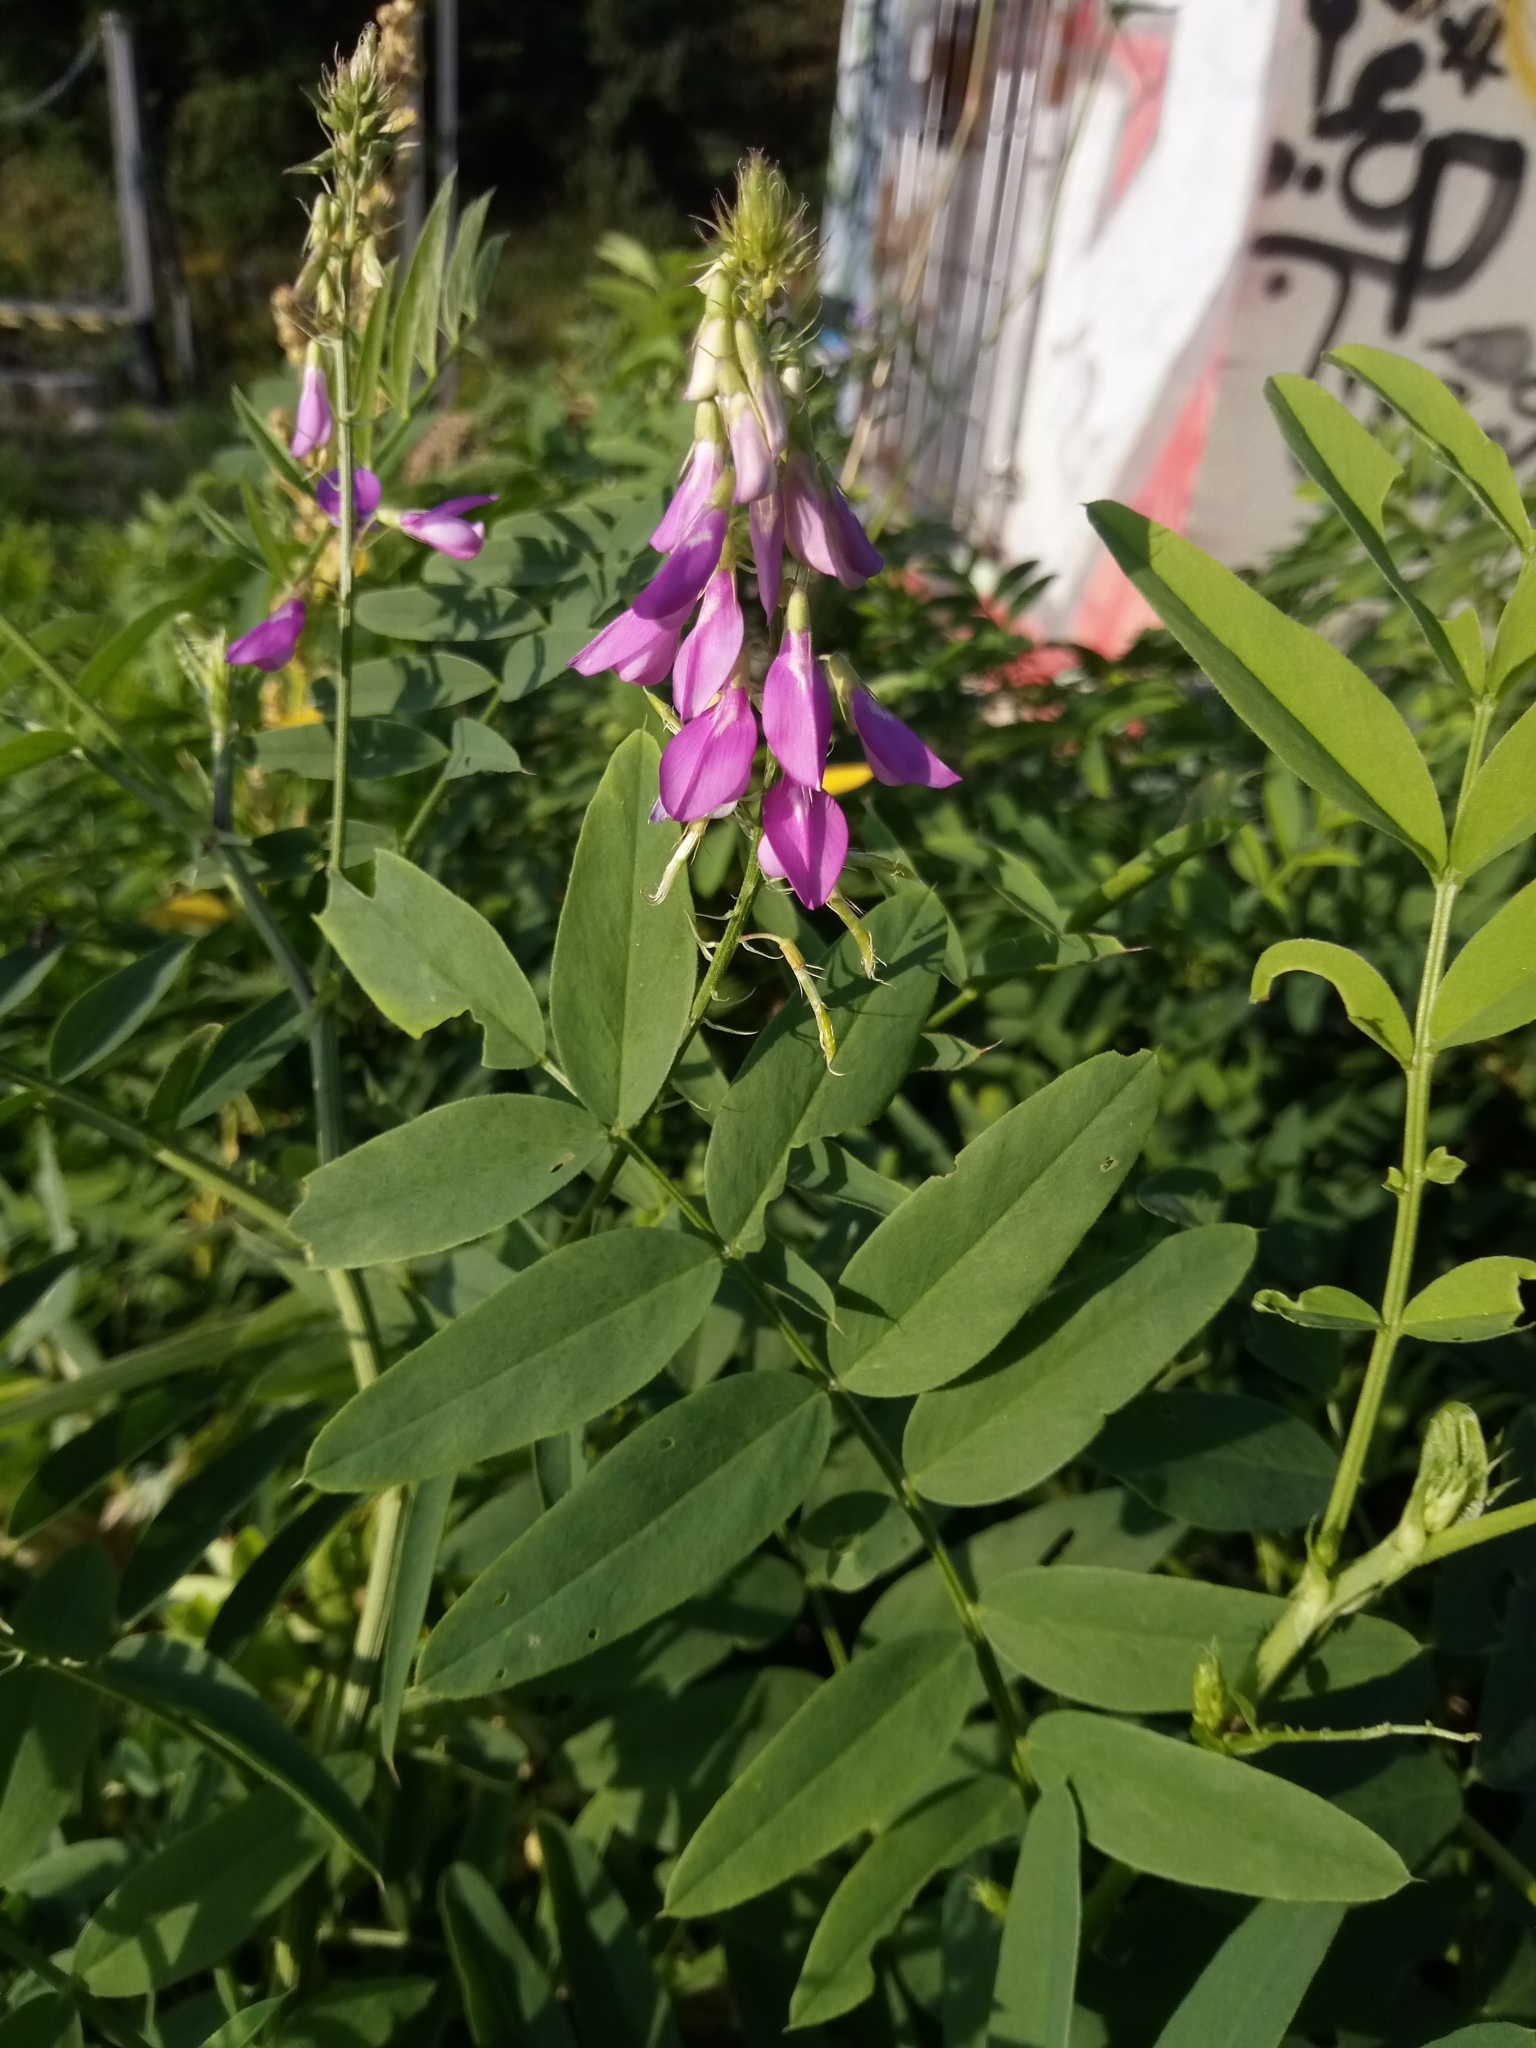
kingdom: Plantae
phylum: Tracheophyta
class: Magnoliopsida
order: Fabales
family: Fabaceae
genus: Galega
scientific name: Galega officinalis
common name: Goat's-rue
